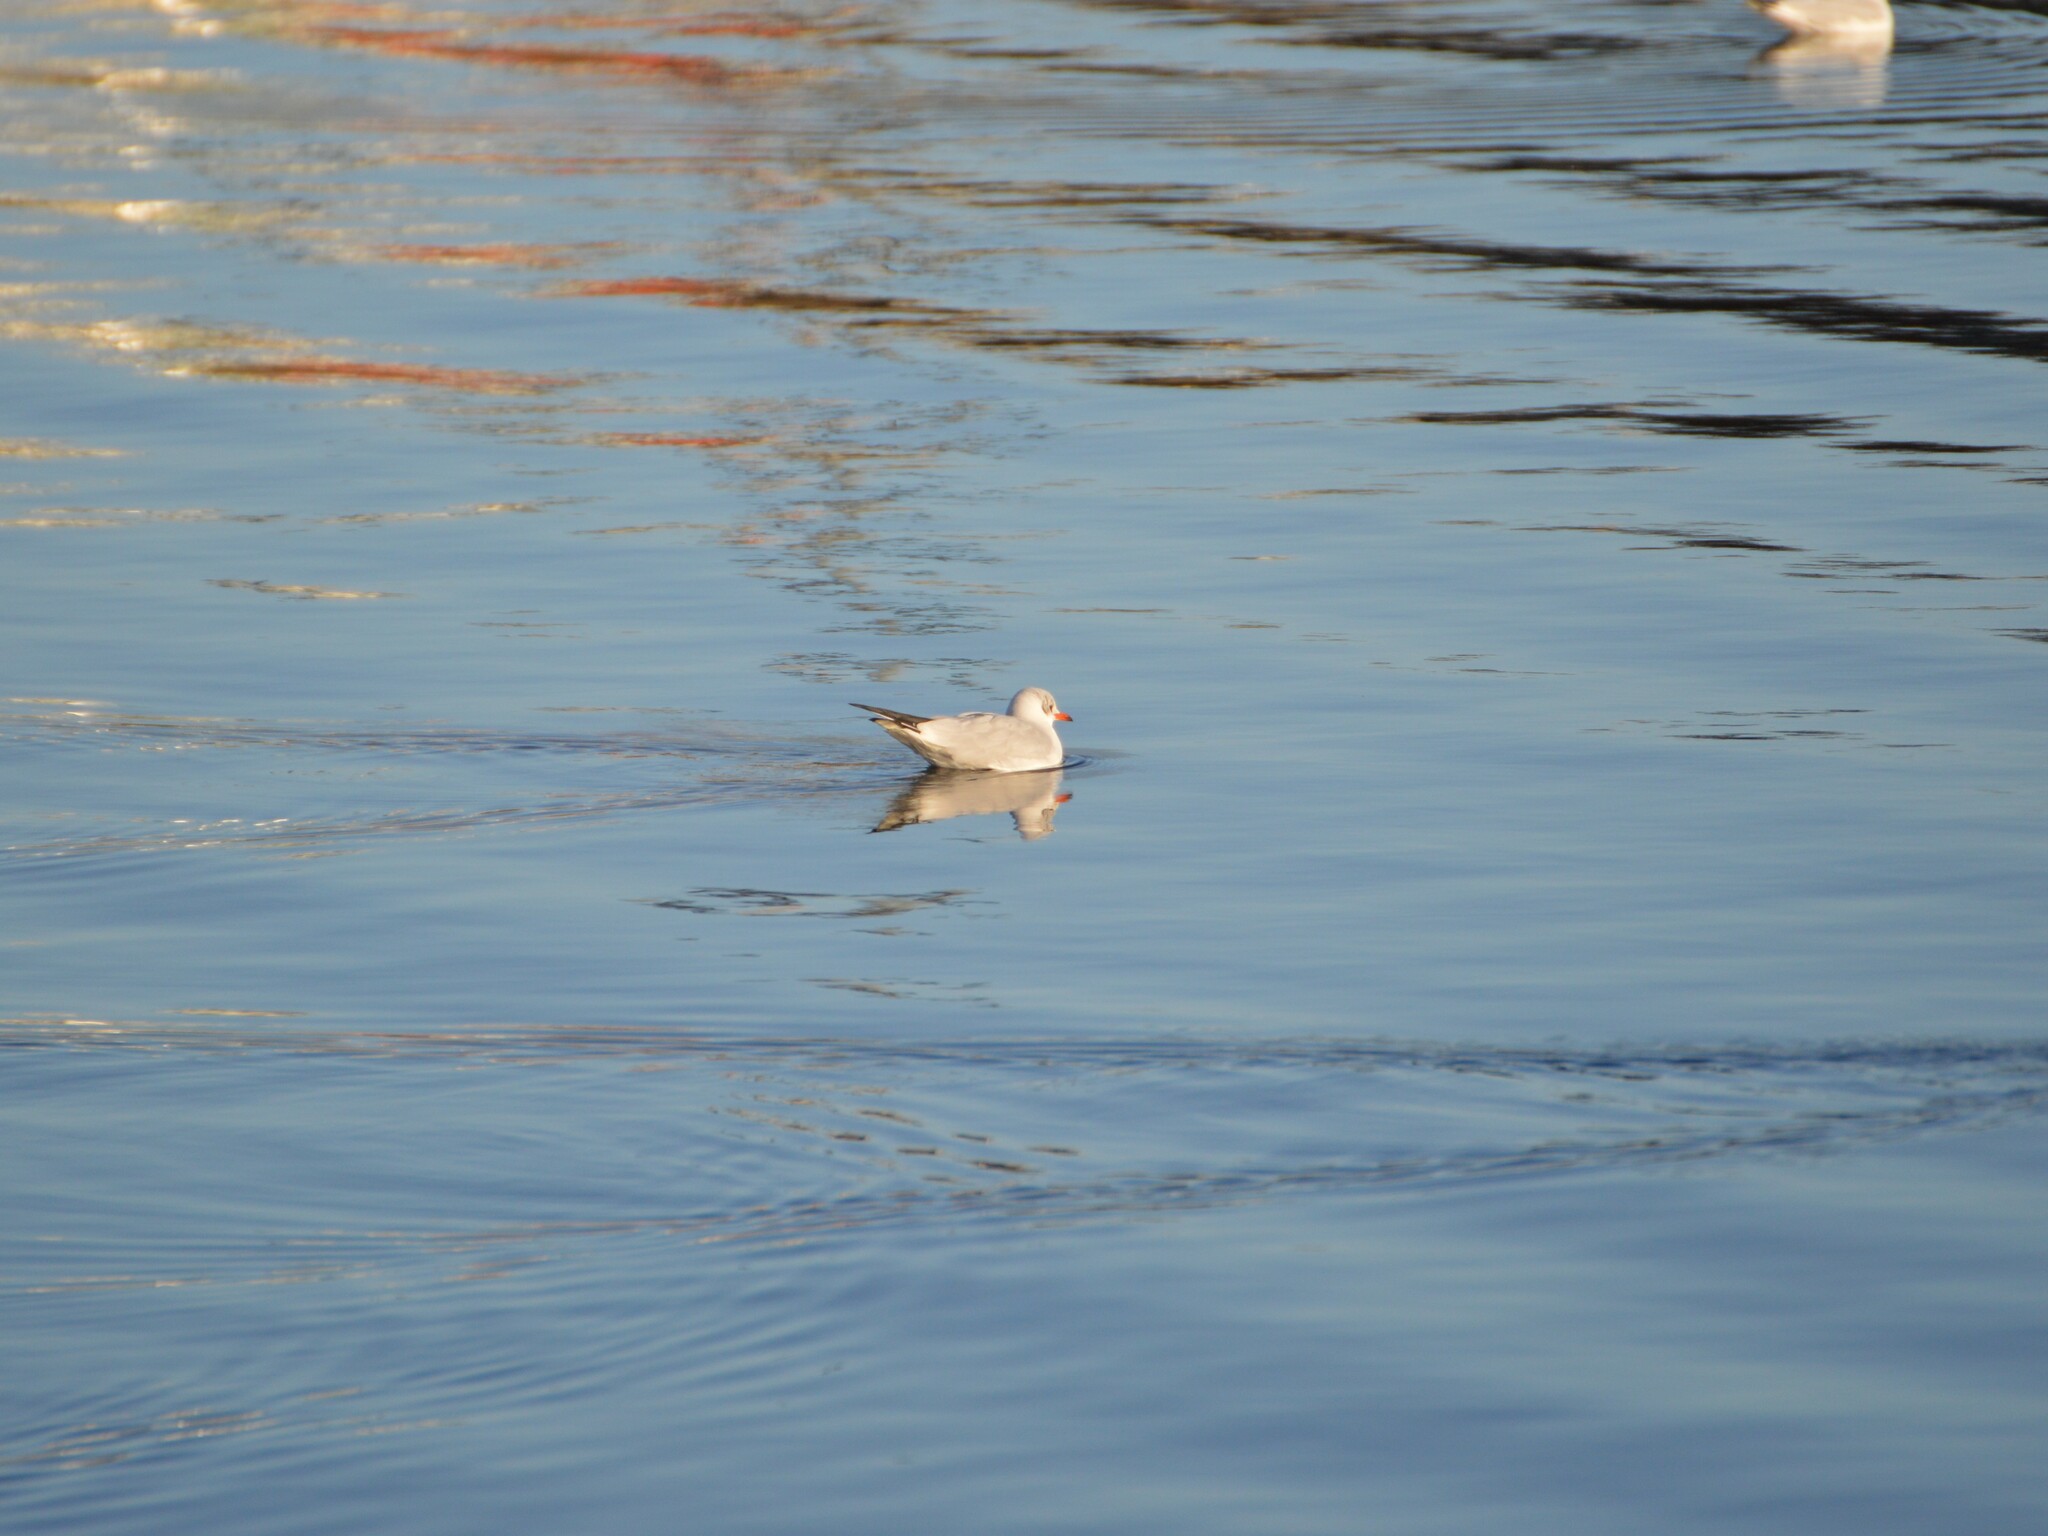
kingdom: Animalia
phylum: Chordata
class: Aves
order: Charadriiformes
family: Laridae
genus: Chroicocephalus
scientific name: Chroicocephalus ridibundus
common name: Black-headed gull
